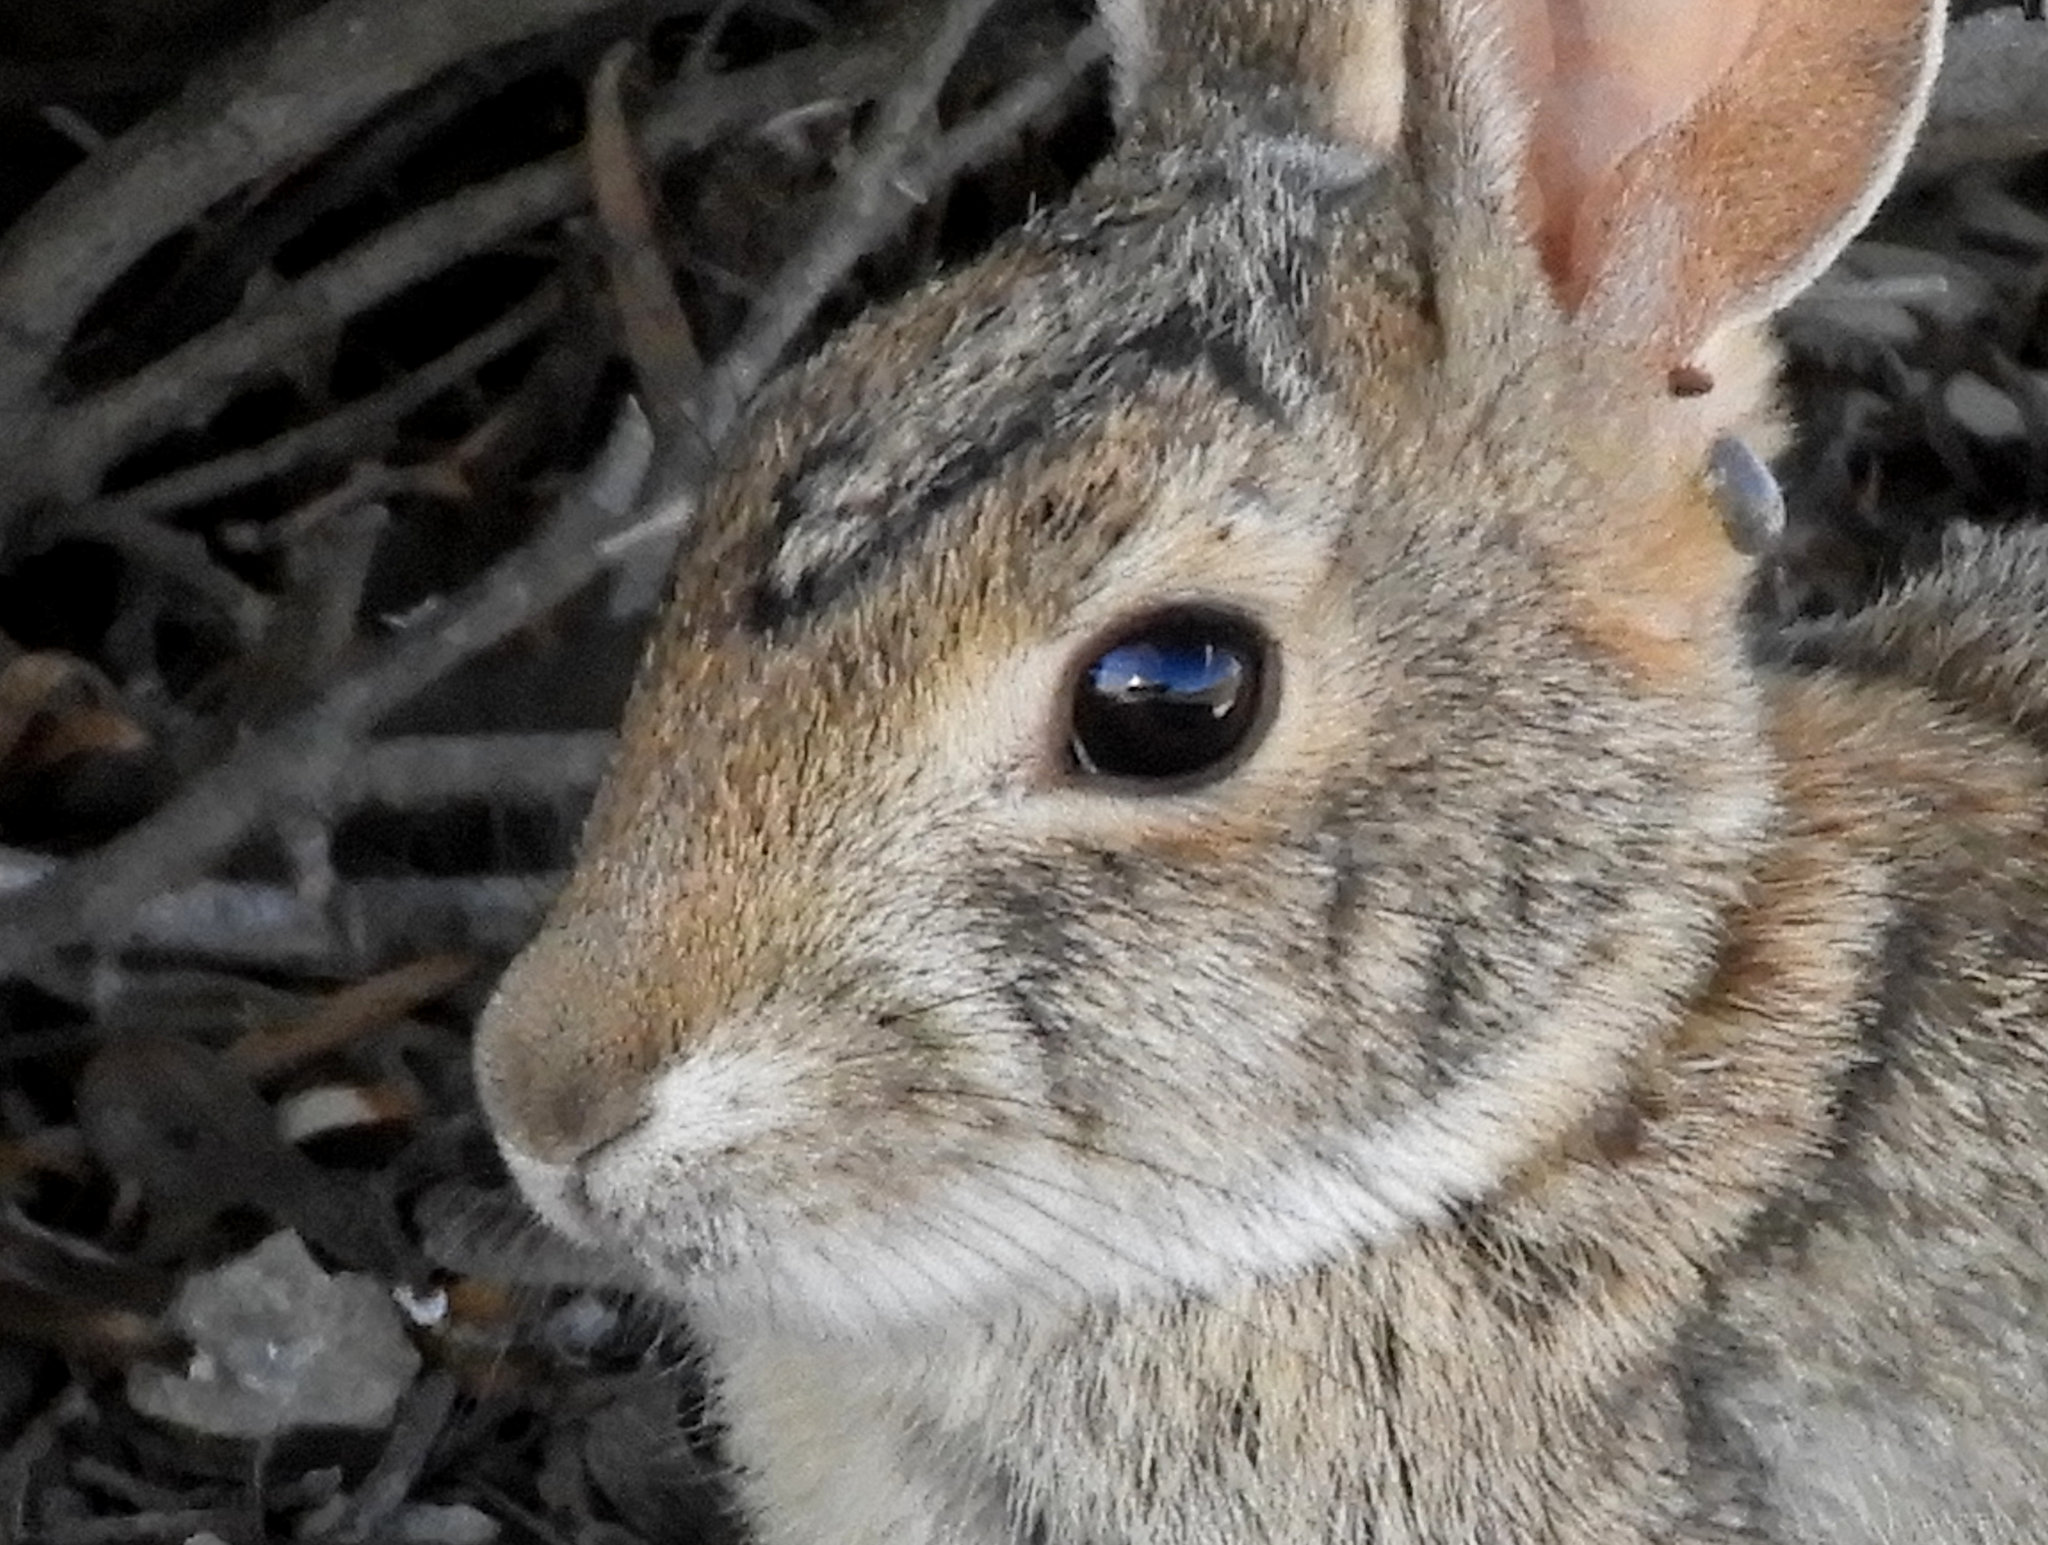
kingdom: Animalia
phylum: Chordata
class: Mammalia
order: Lagomorpha
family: Leporidae
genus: Sylvilagus
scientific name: Sylvilagus audubonii
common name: Desert cottontail
